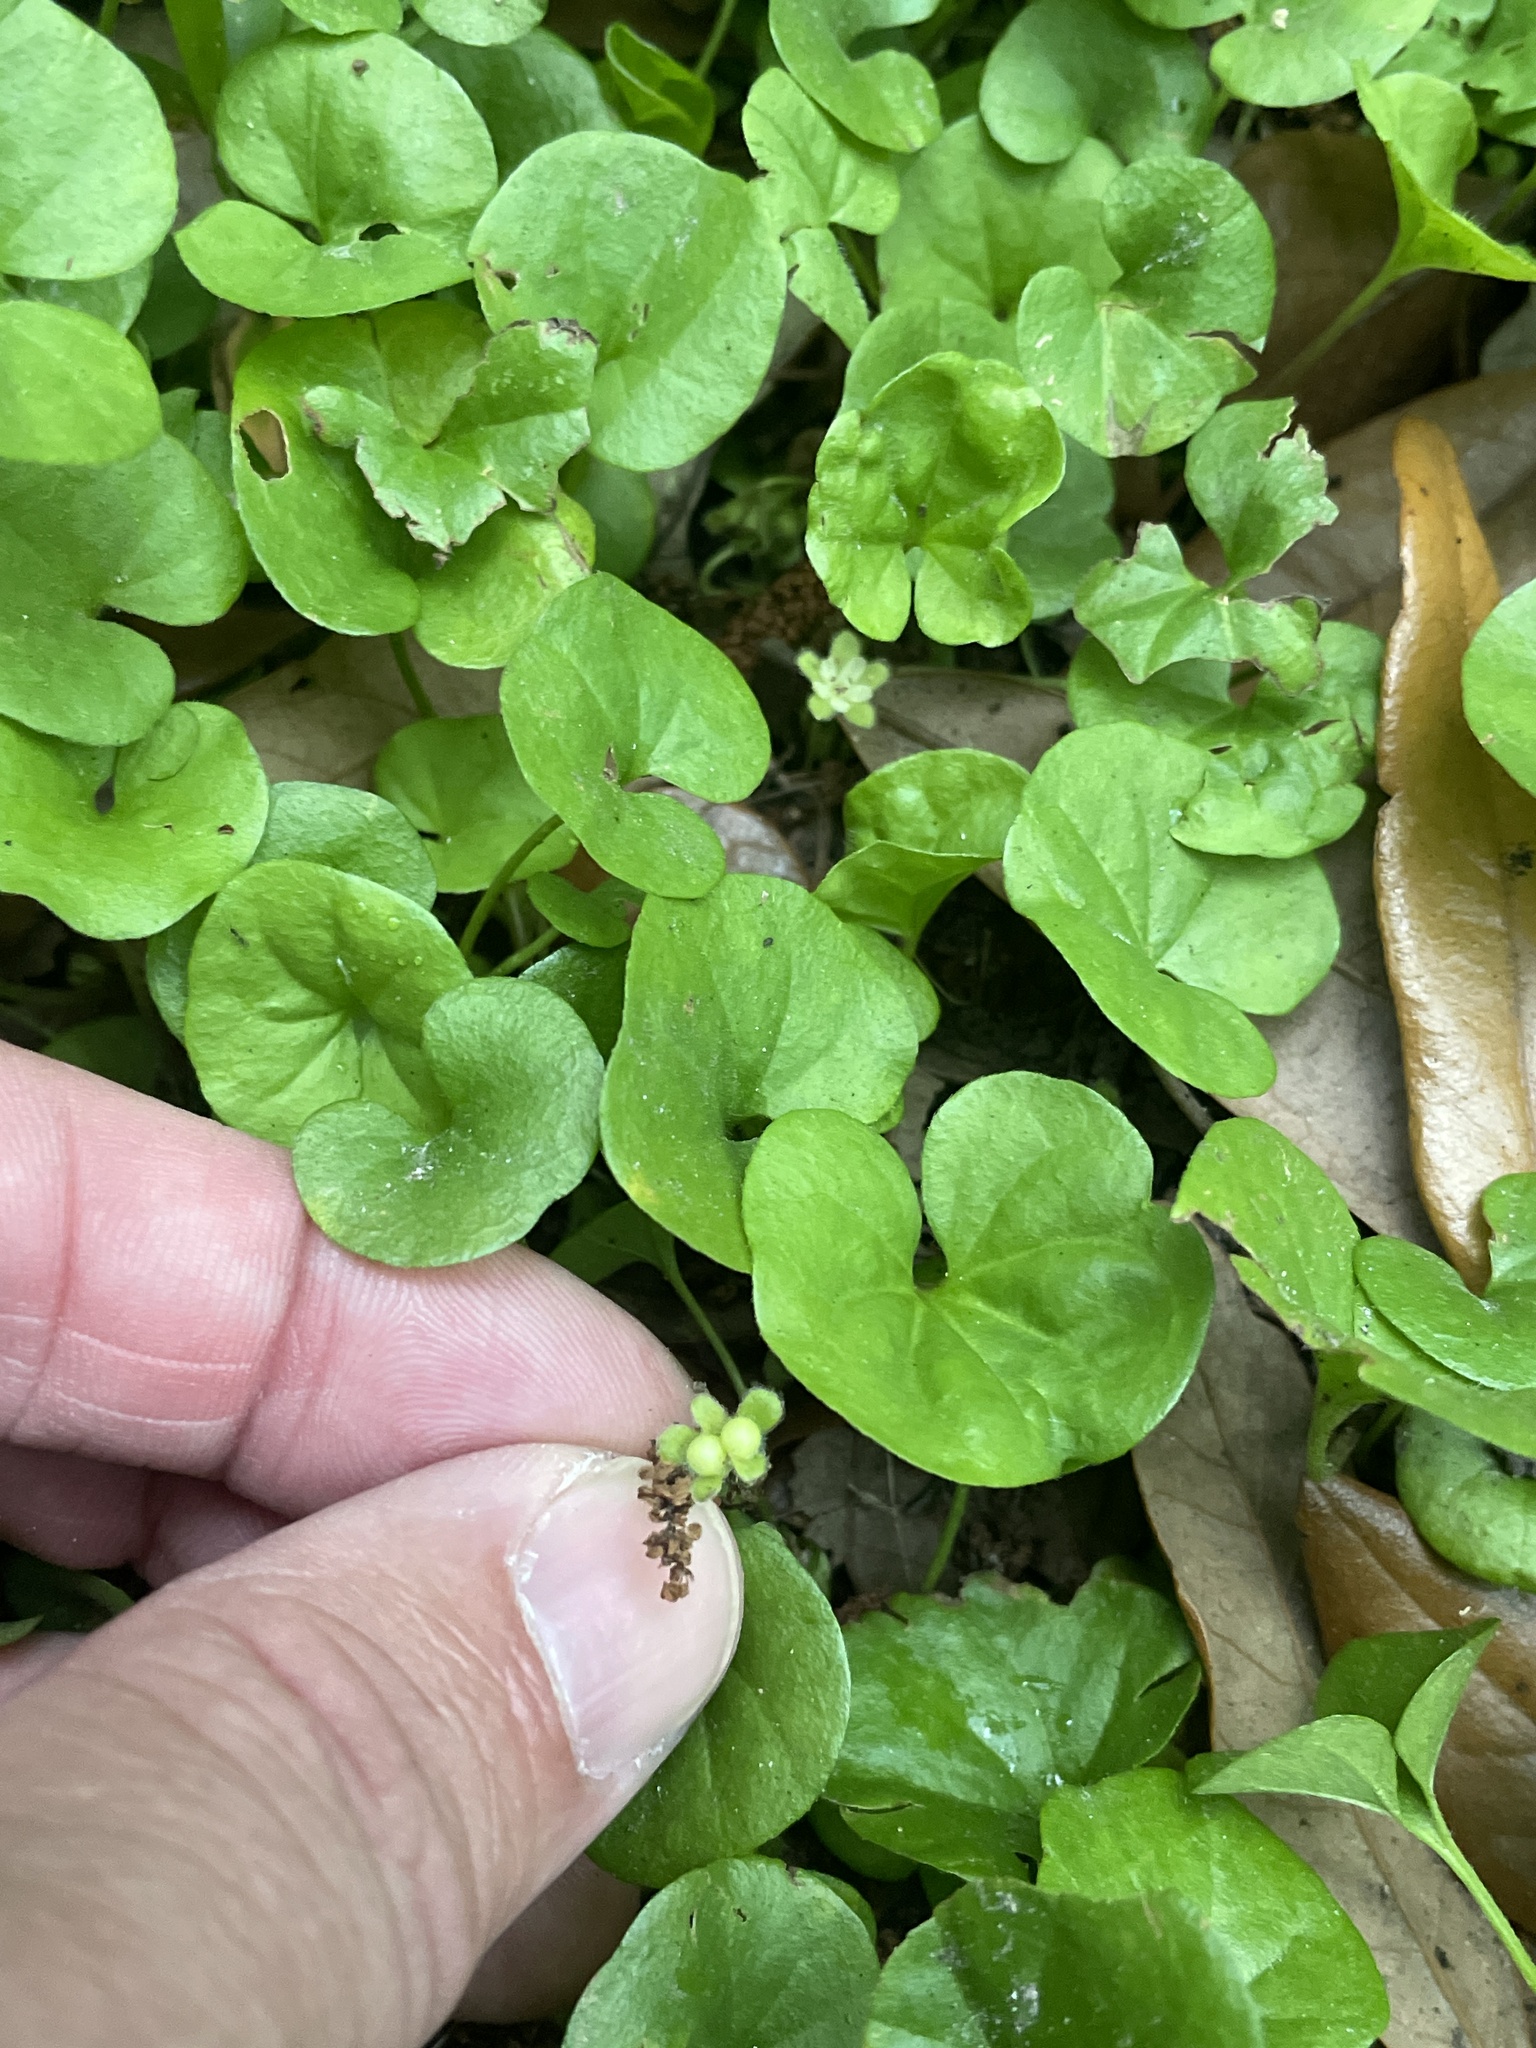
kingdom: Plantae
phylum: Tracheophyta
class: Magnoliopsida
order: Solanales
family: Convolvulaceae
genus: Dichondra
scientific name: Dichondra carolinensis
